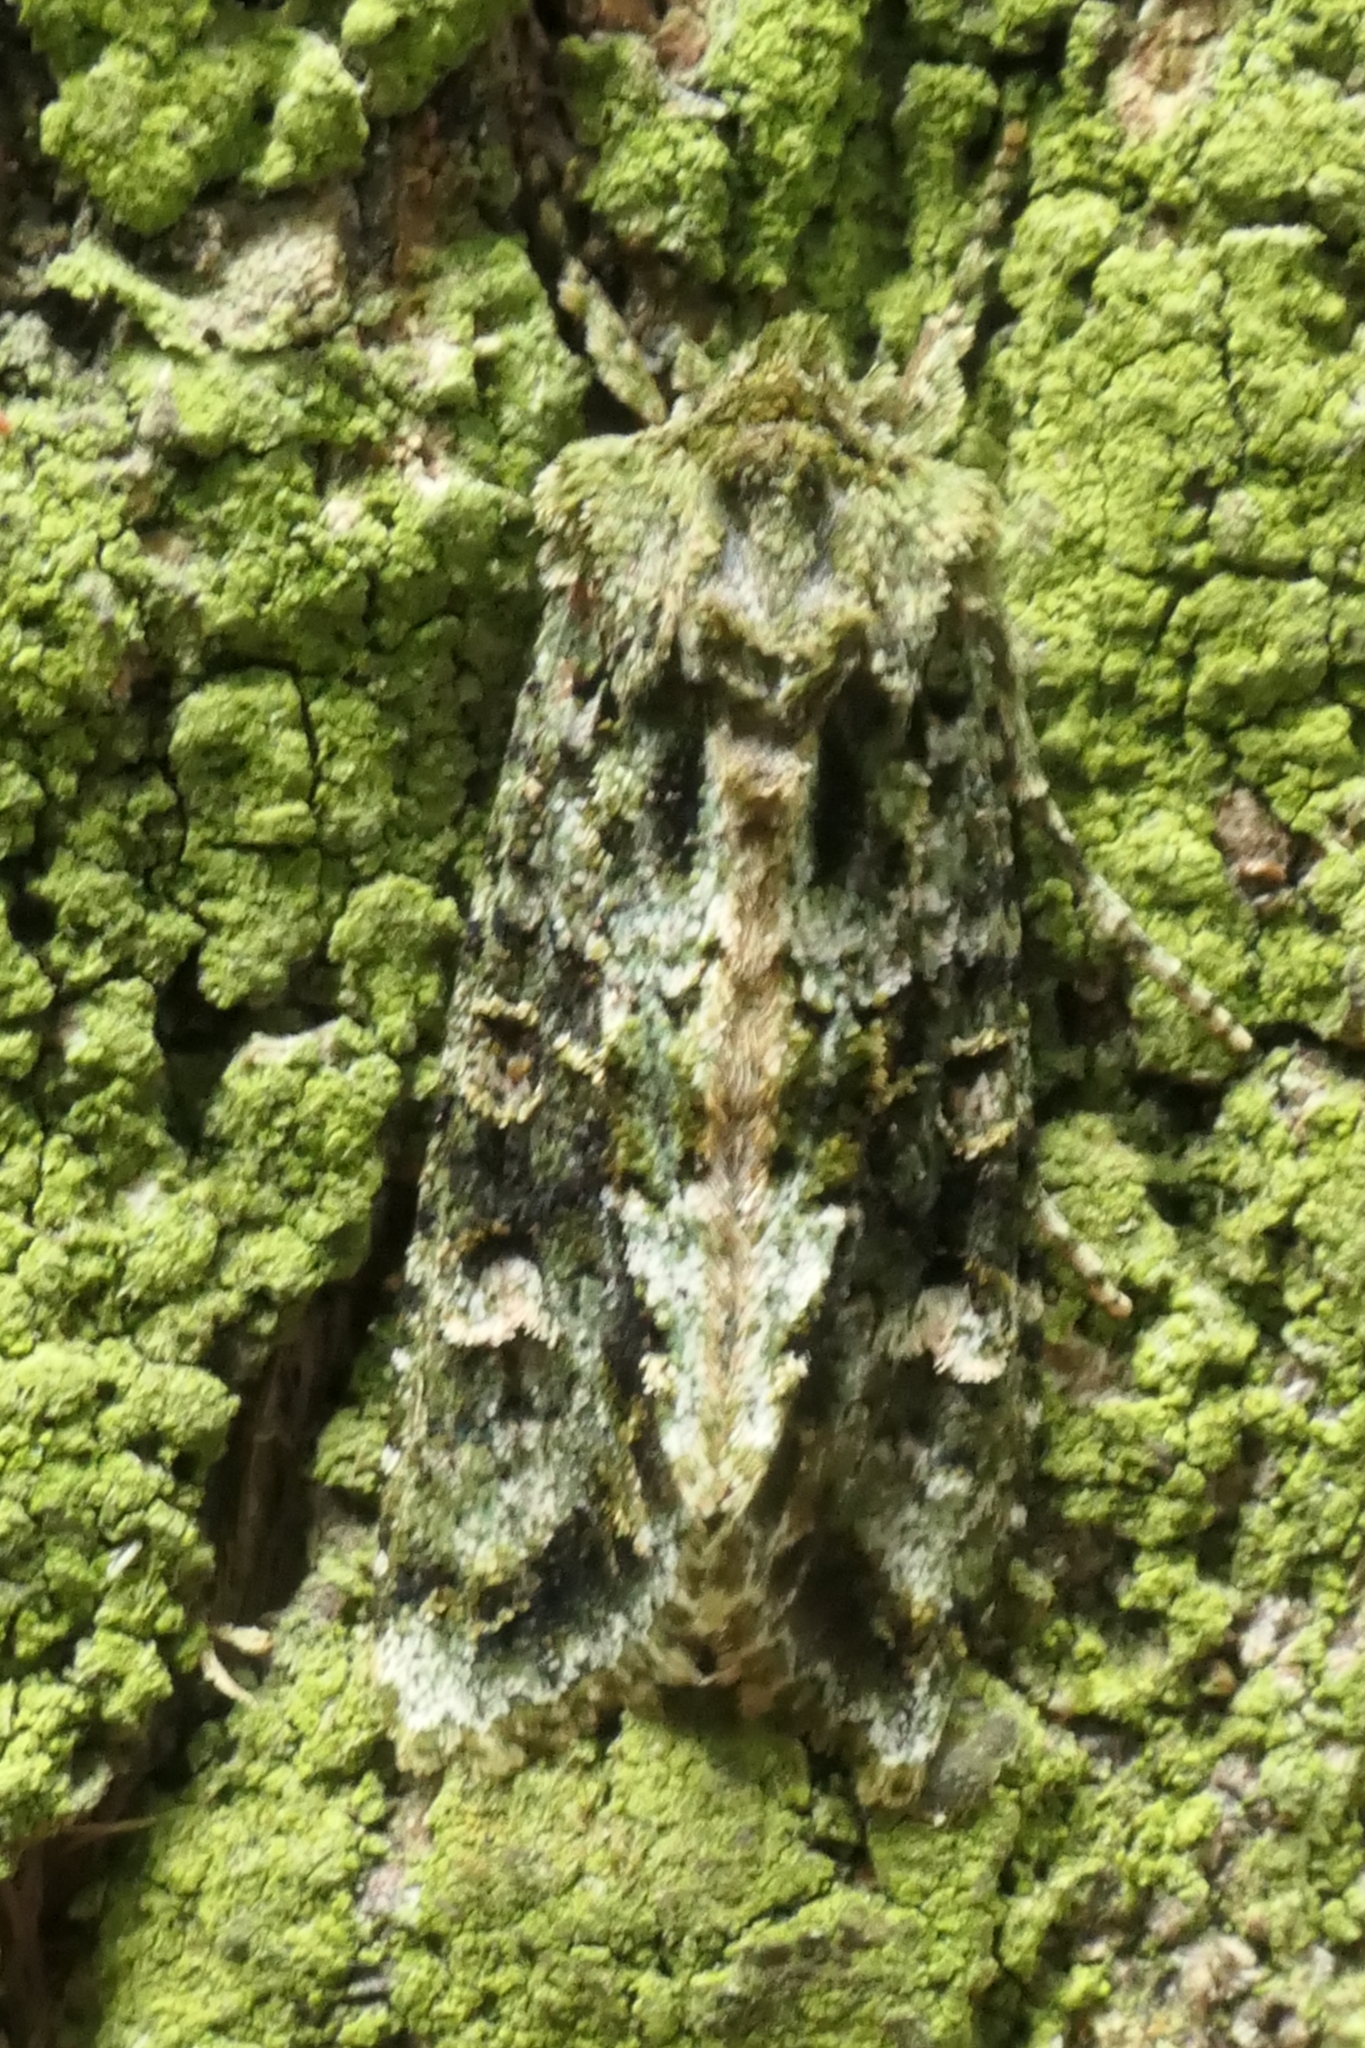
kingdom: Animalia
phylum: Arthropoda
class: Insecta
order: Lepidoptera
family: Noctuidae
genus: Ichneutica
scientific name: Ichneutica
